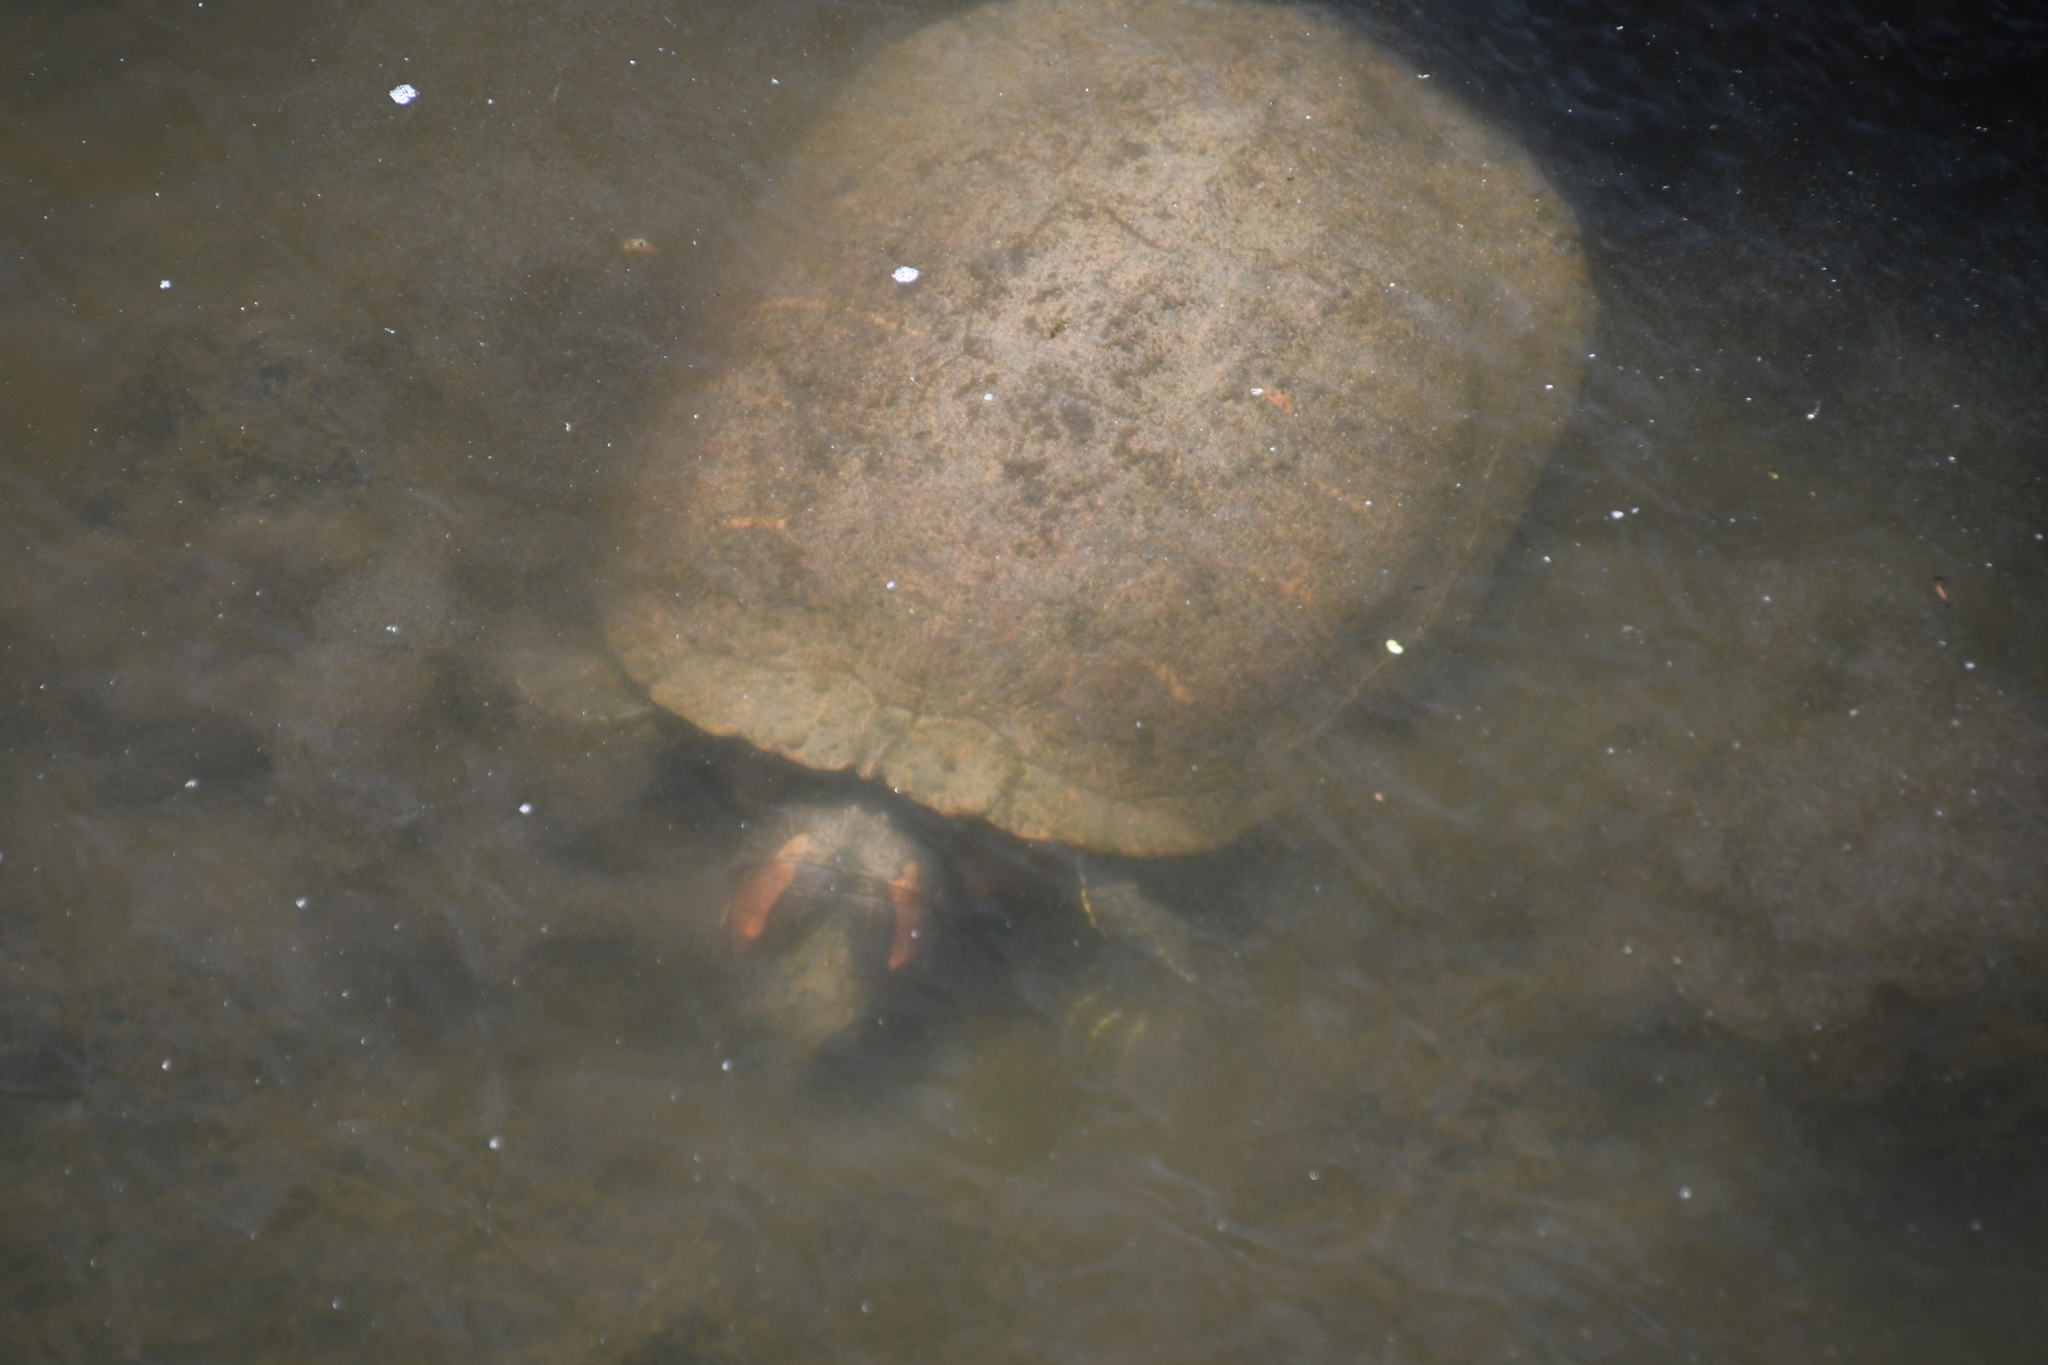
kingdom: Animalia
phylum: Chordata
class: Testudines
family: Emydidae
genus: Trachemys
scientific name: Trachemys scripta
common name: Slider
